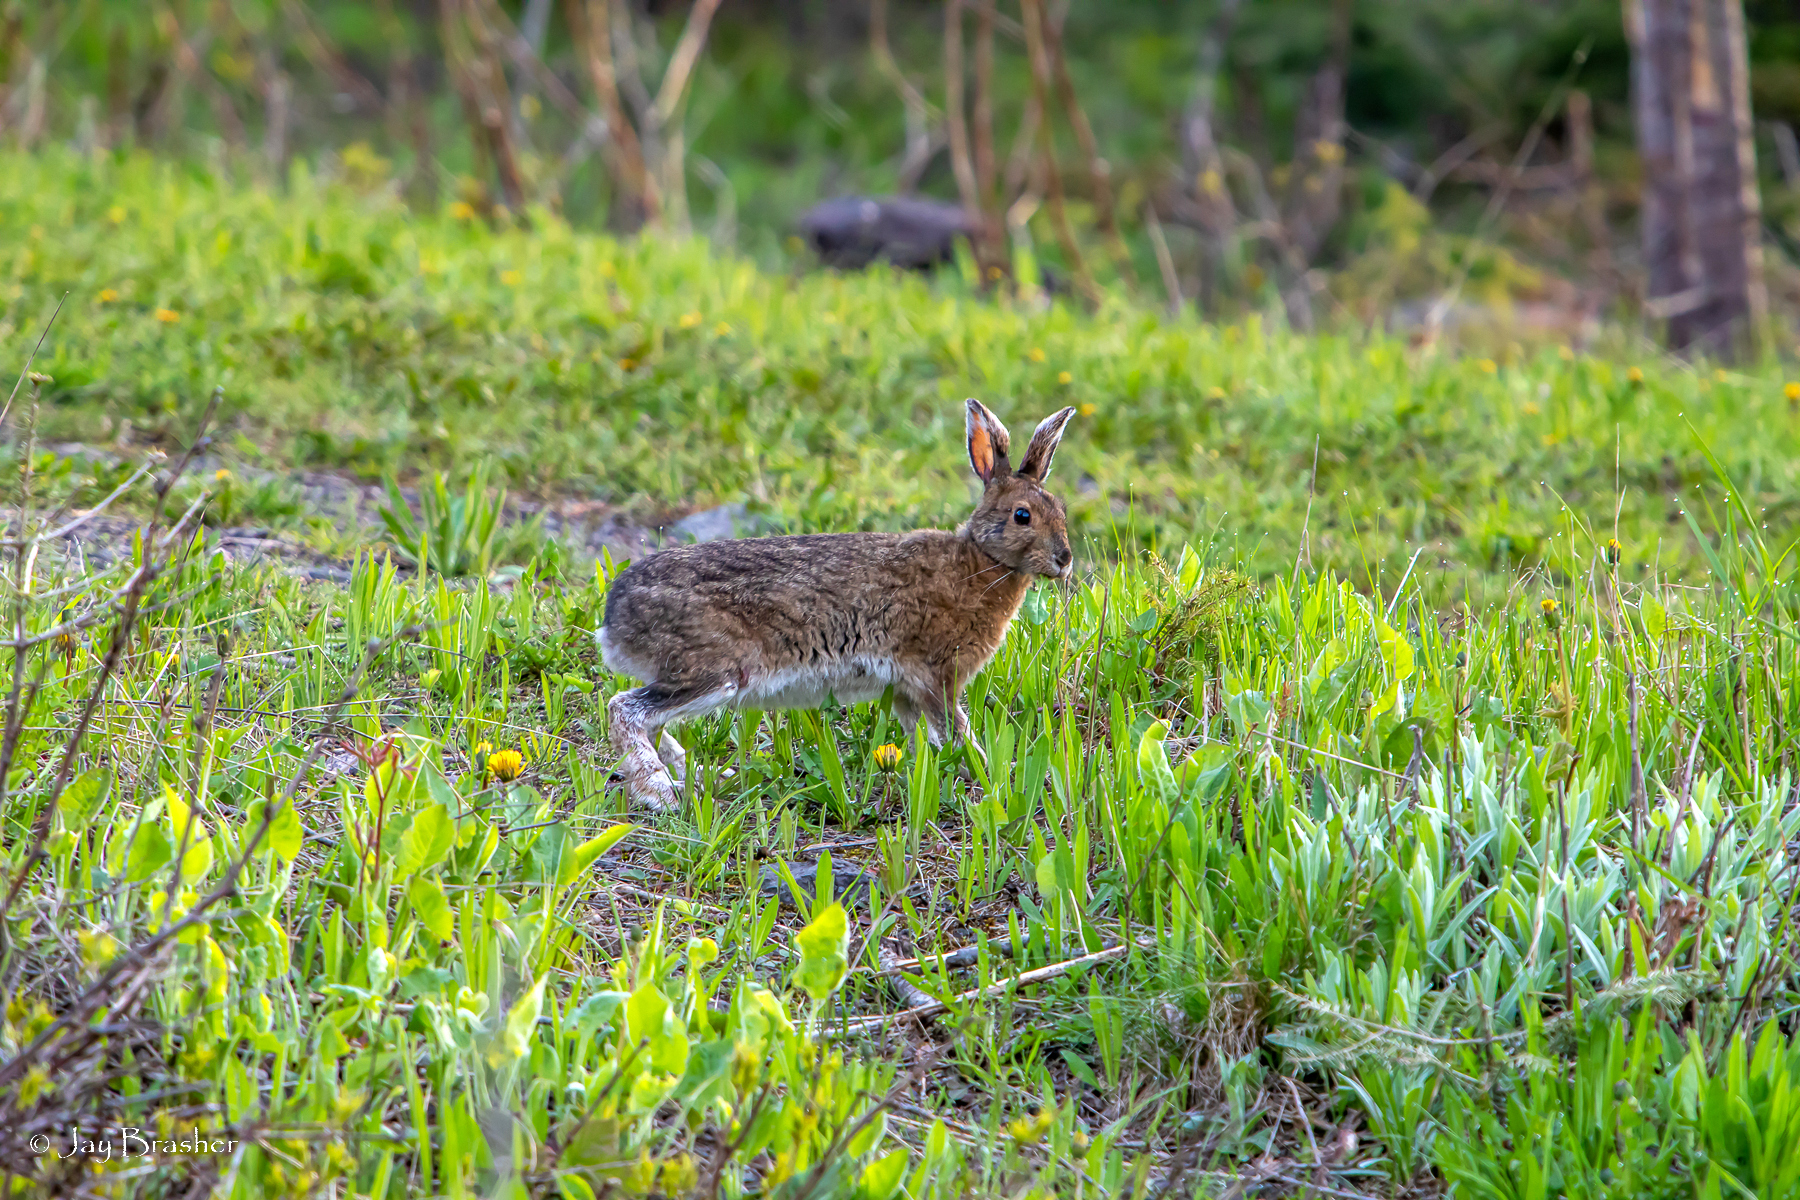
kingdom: Animalia
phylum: Chordata
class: Mammalia
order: Lagomorpha
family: Leporidae
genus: Lepus
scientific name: Lepus americanus
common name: Snowshoe hare
